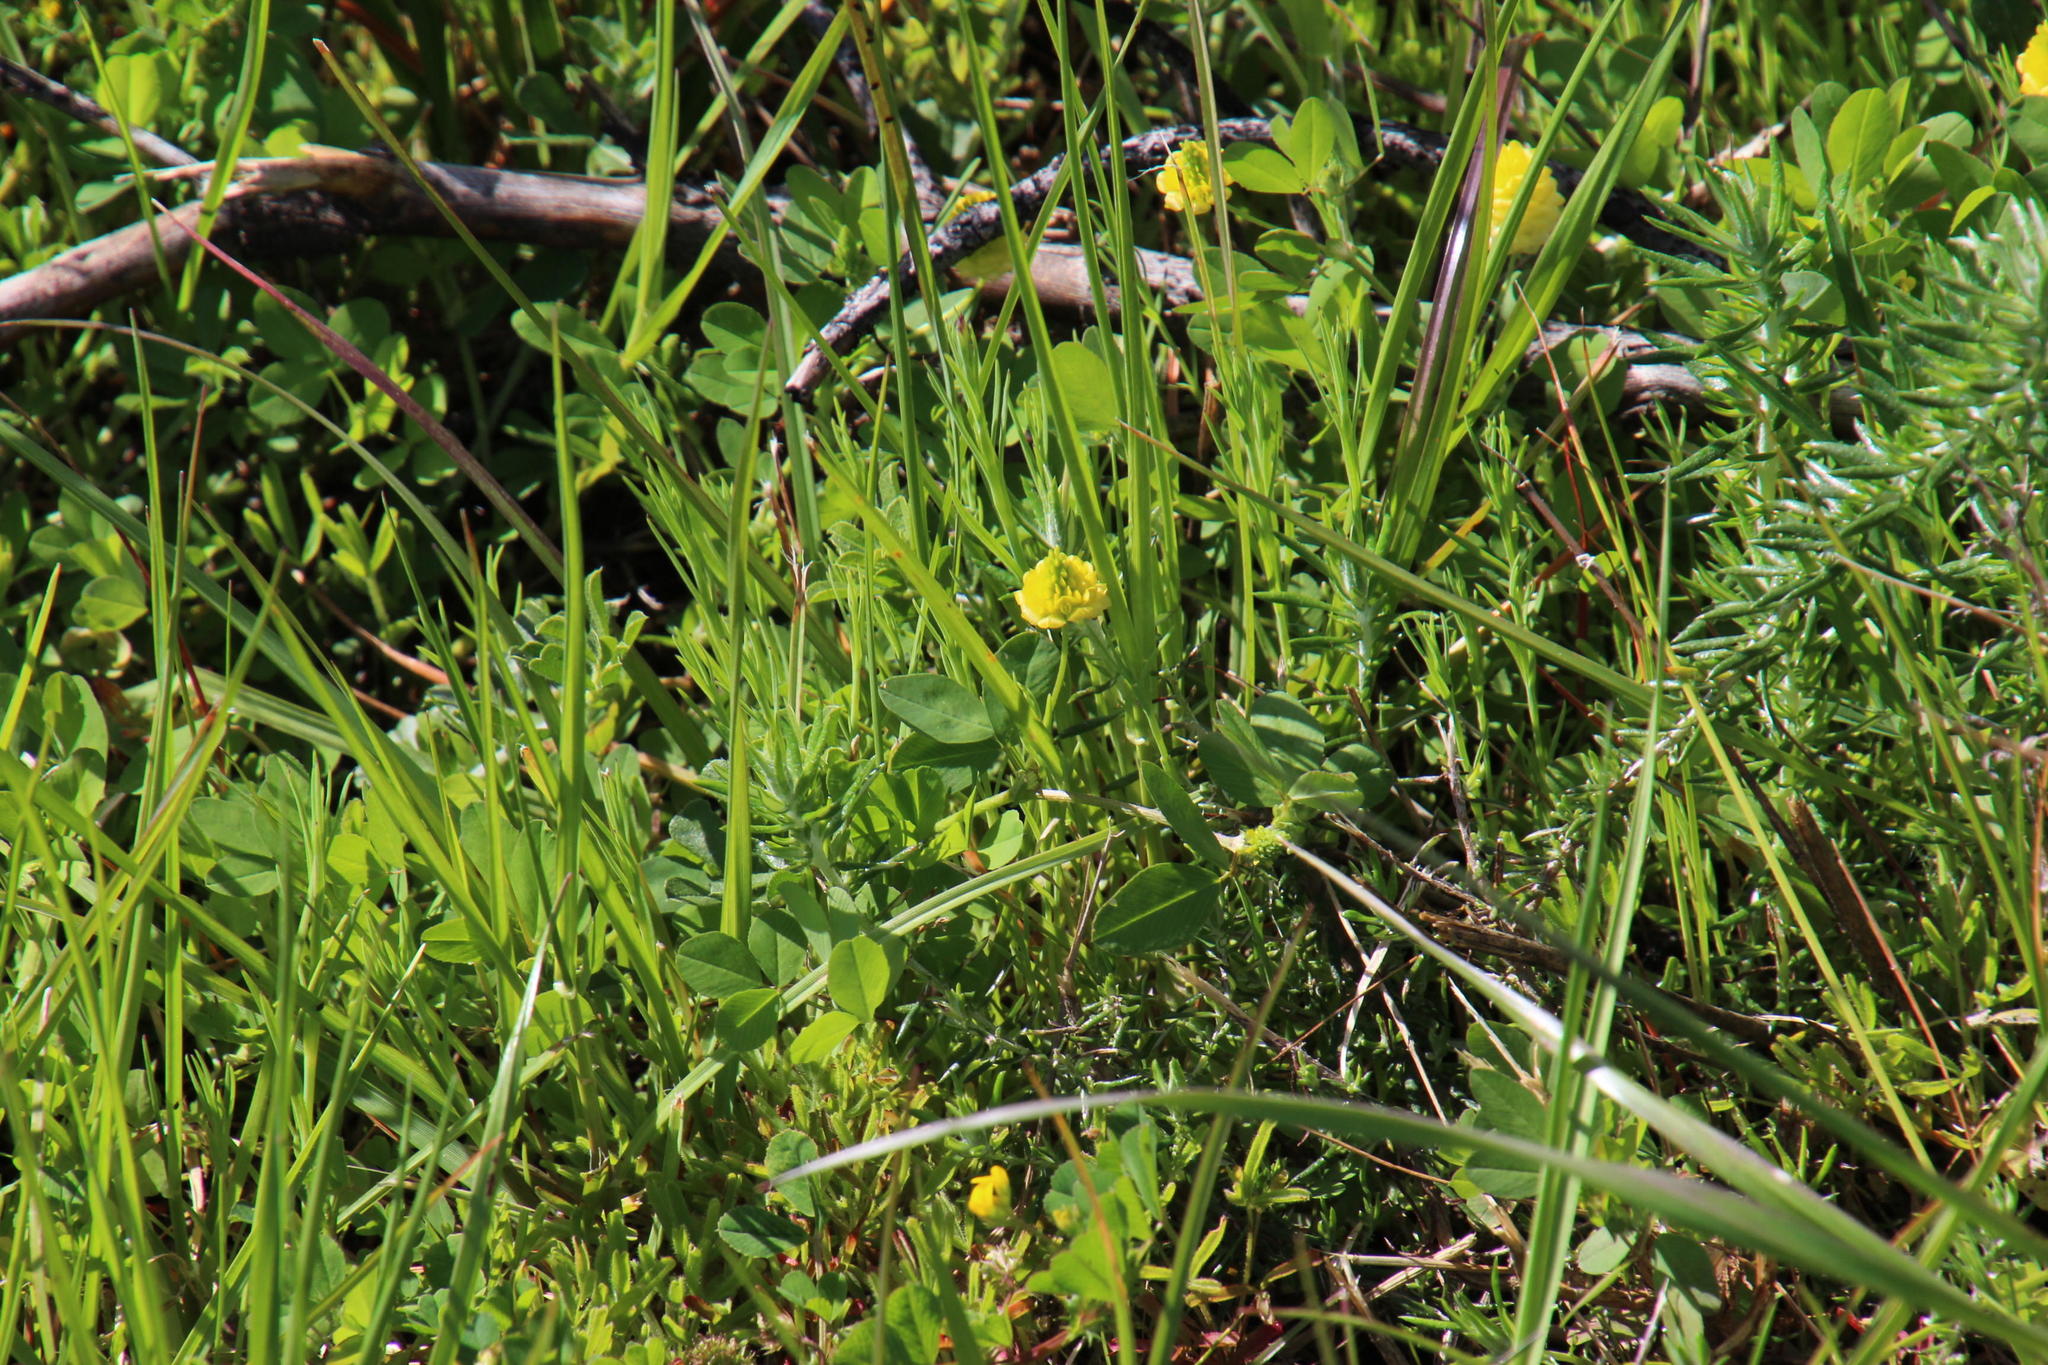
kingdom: Plantae
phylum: Tracheophyta
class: Magnoliopsida
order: Fabales
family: Fabaceae
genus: Trifolium
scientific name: Trifolium campestre
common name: Field clover
